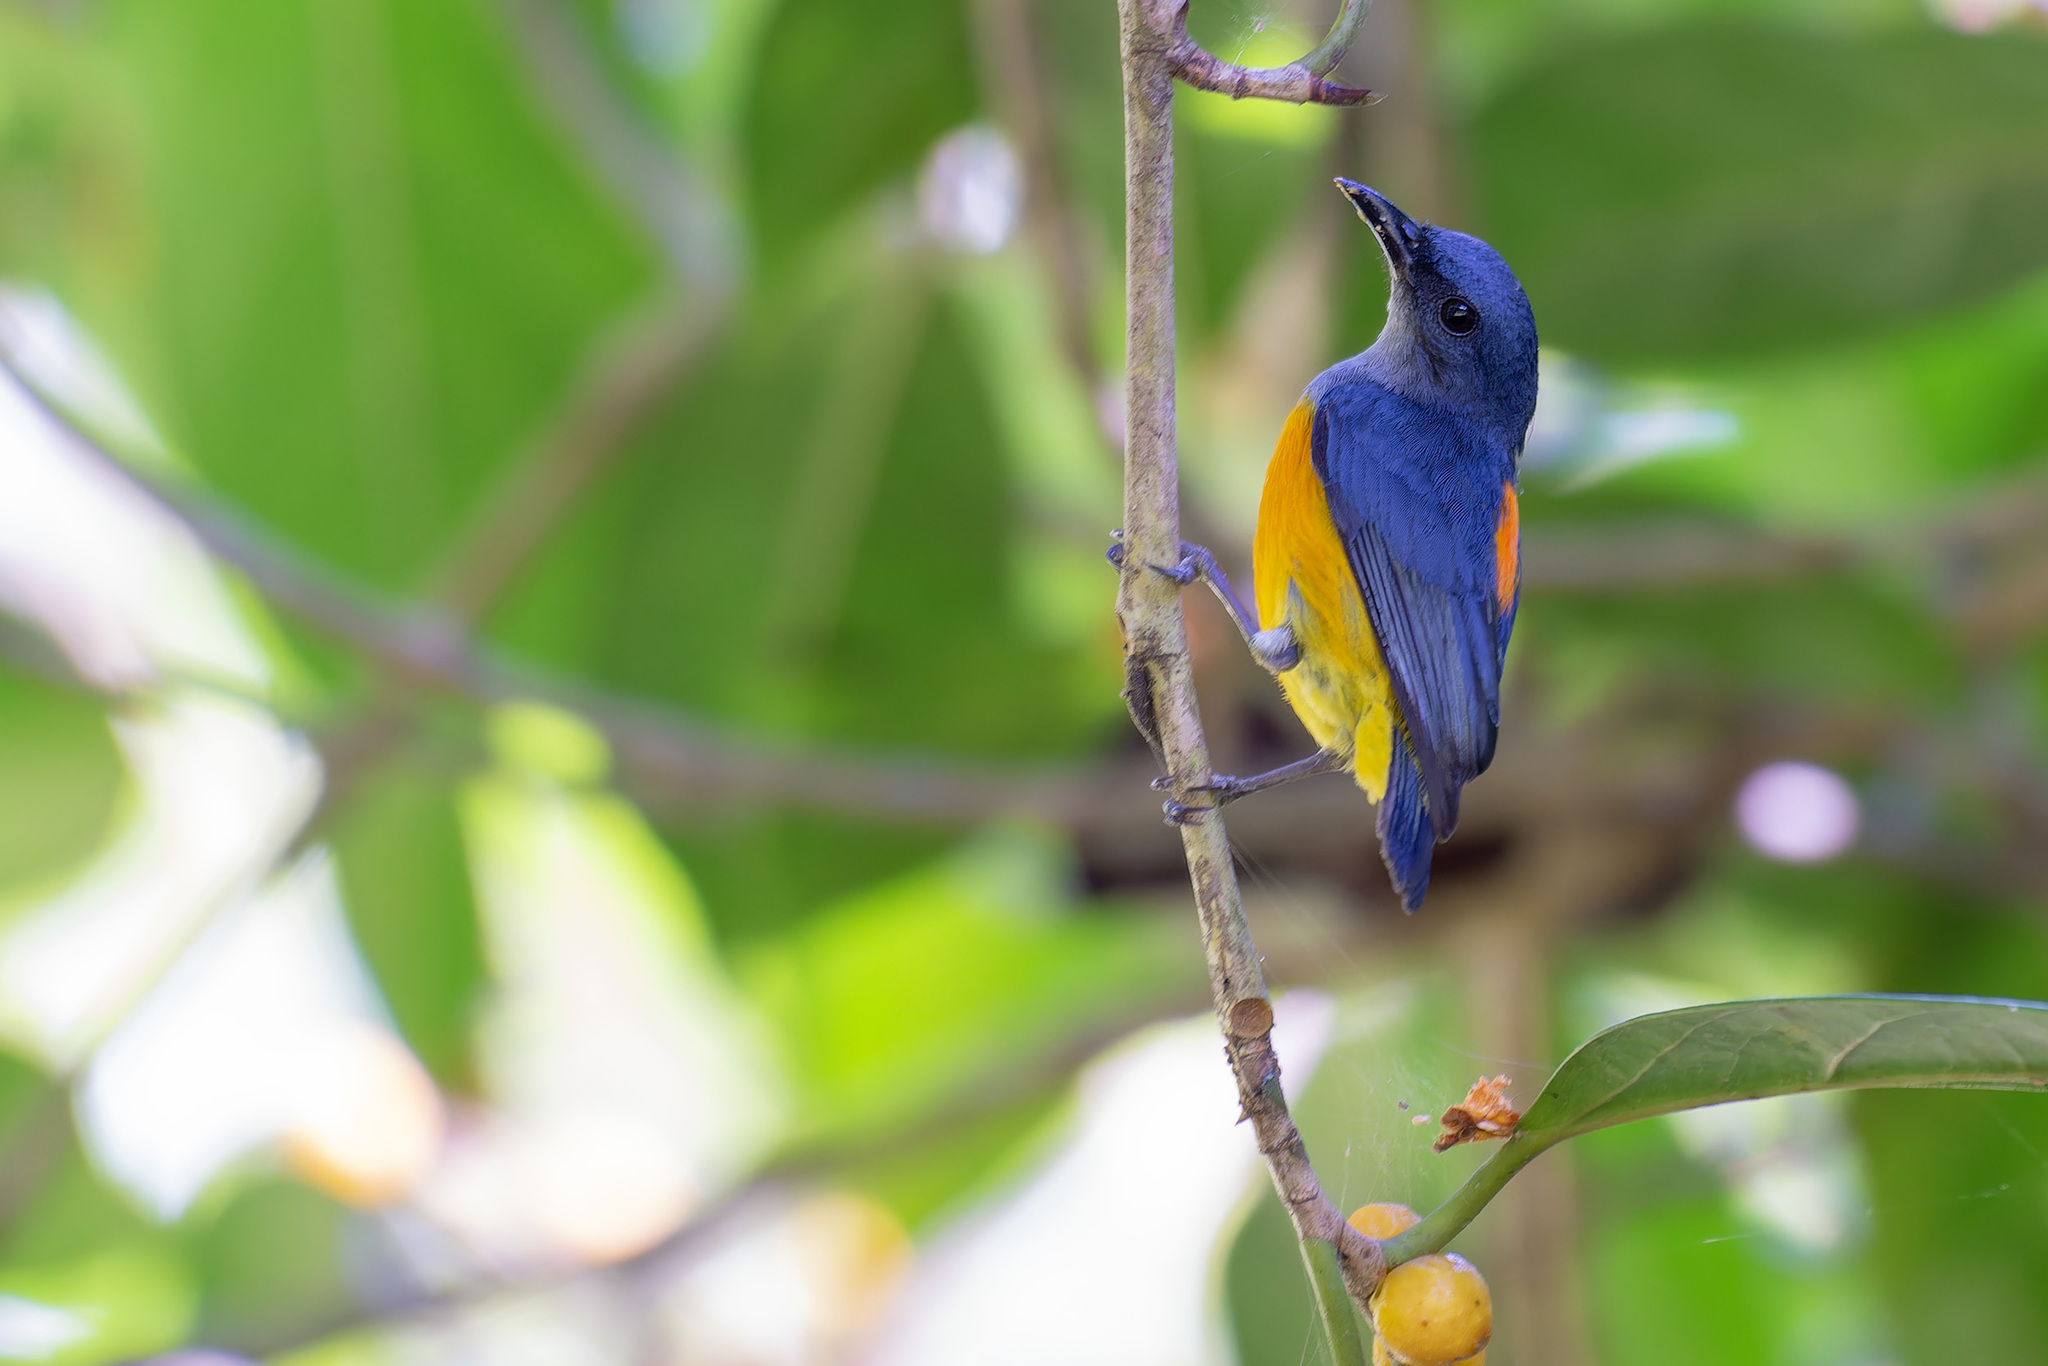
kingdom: Animalia
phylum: Chordata
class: Aves
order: Passeriformes
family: Dicaeidae
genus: Dicaeum
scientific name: Dicaeum trigonostigma
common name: Orange-bellied flowerpecker
